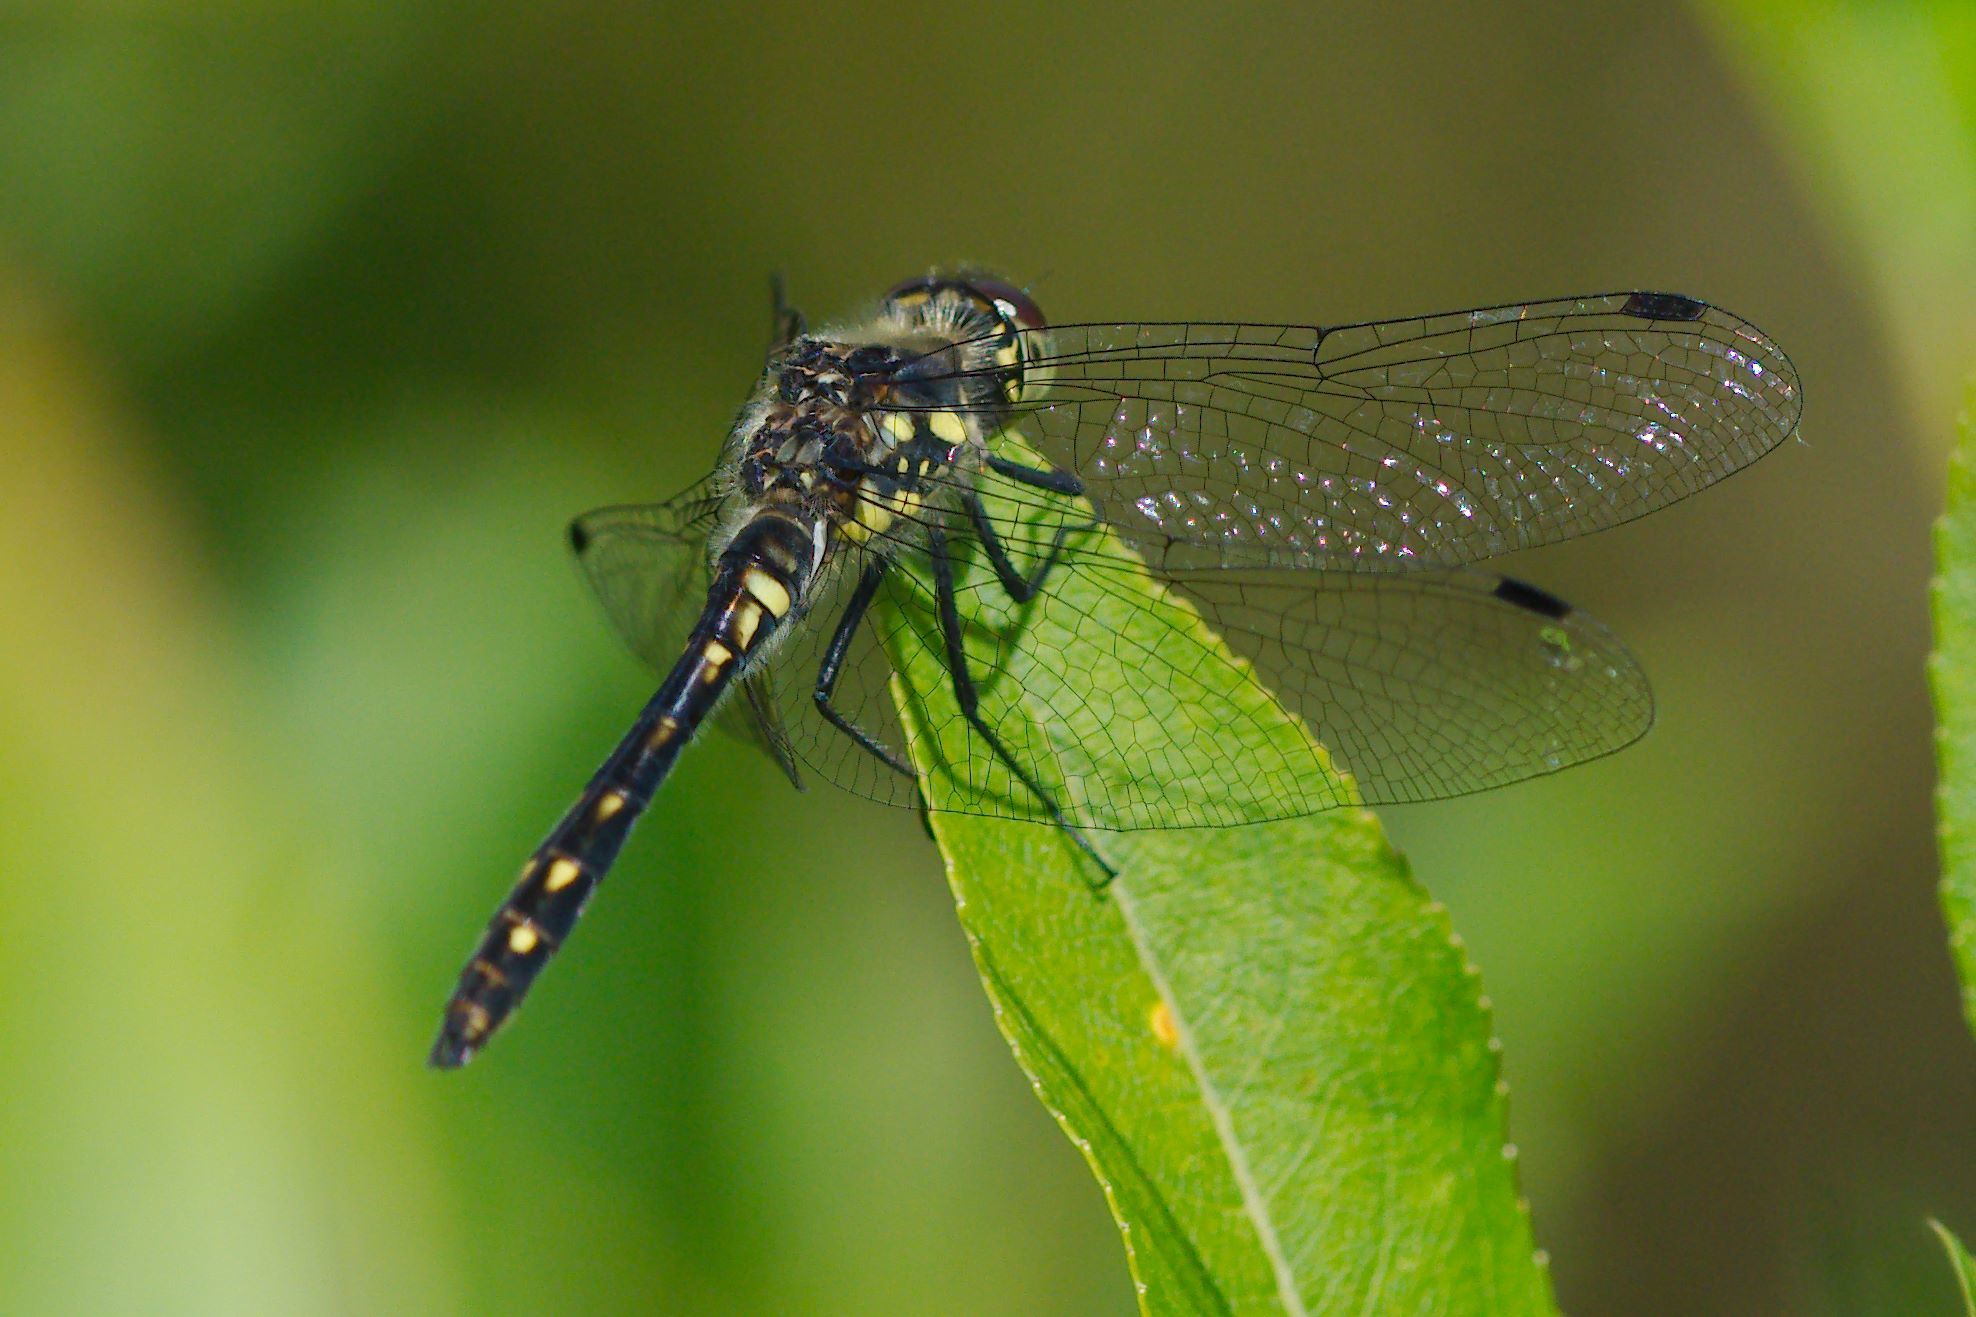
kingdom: Animalia
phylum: Arthropoda
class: Insecta
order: Odonata
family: Libellulidae
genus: Sympetrum
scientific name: Sympetrum danae
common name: Black darter
